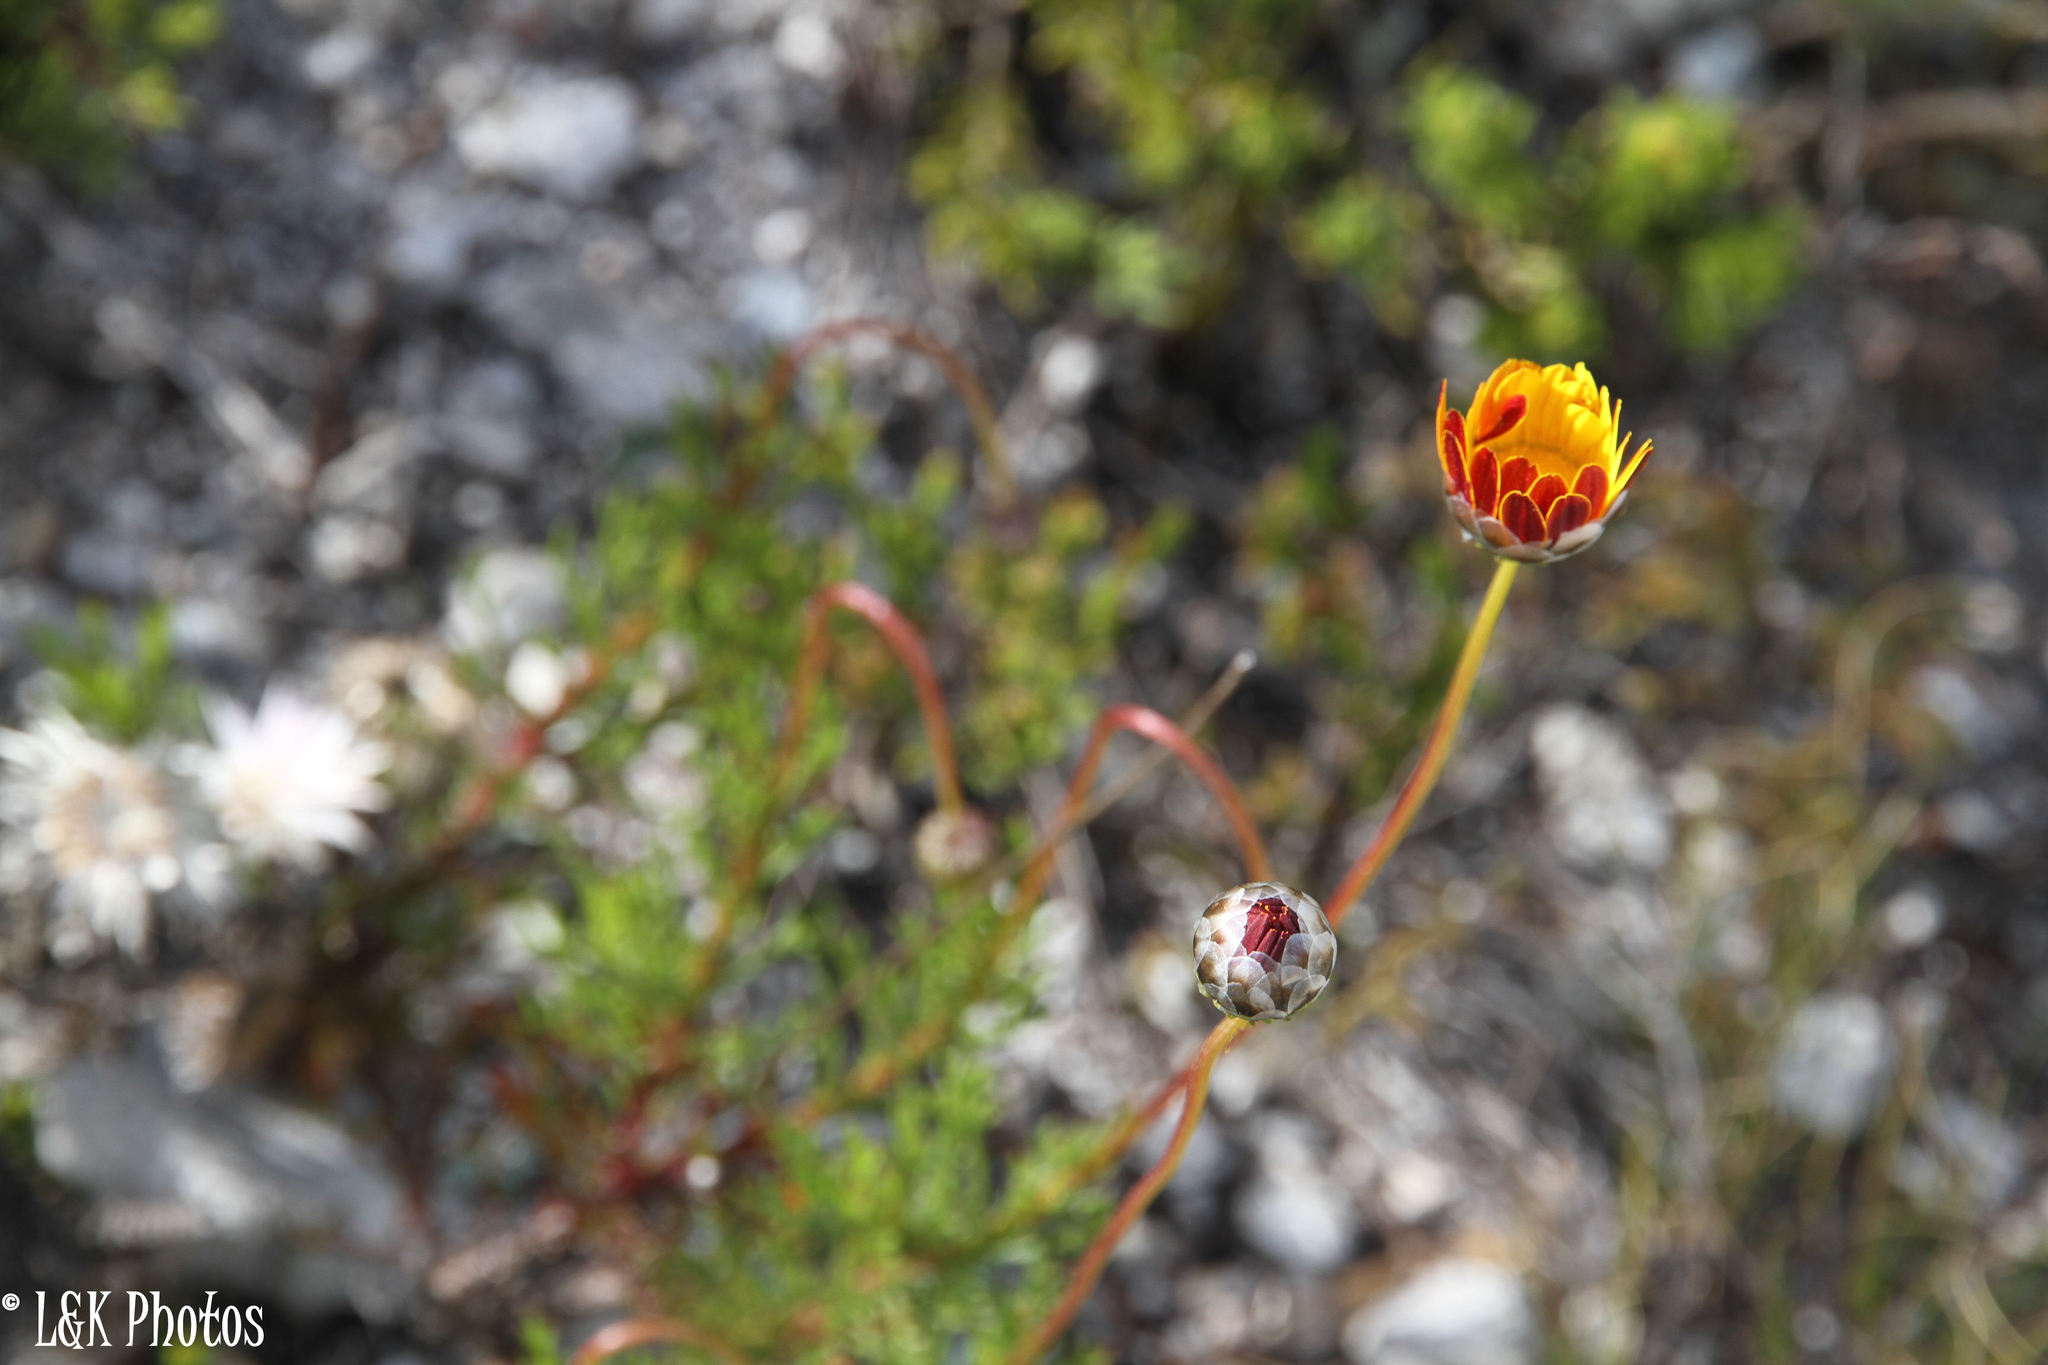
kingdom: Plantae
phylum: Tracheophyta
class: Magnoliopsida
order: Asterales
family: Asteraceae
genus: Ursinia
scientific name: Ursinia paleacea
